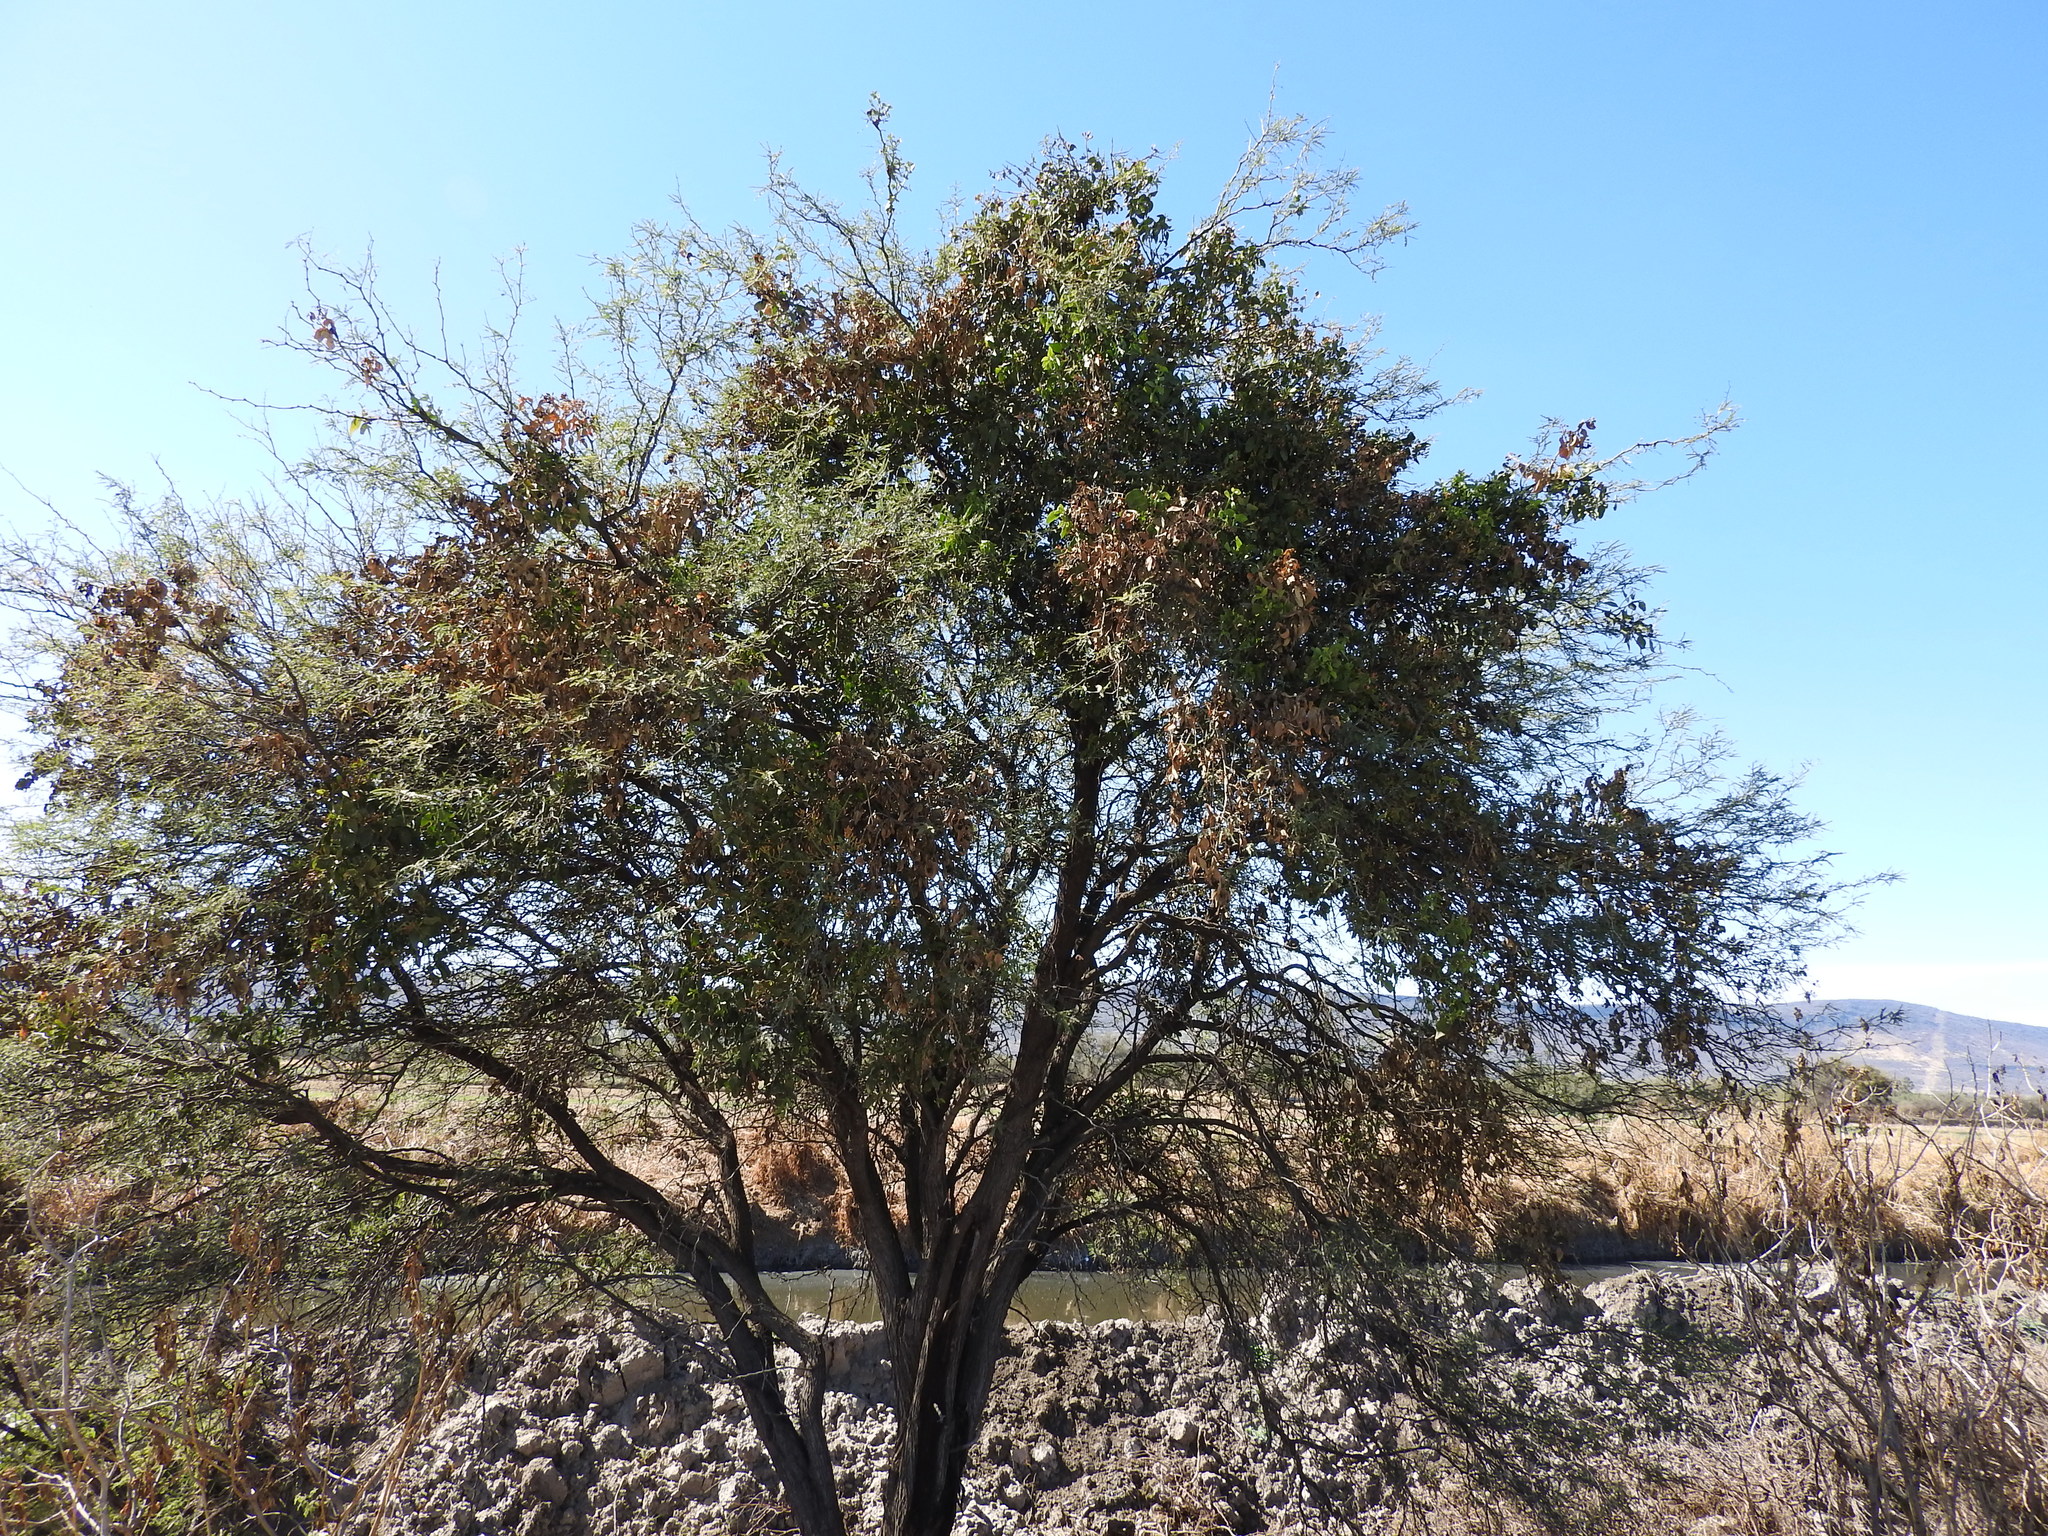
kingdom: Plantae
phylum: Tracheophyta
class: Magnoliopsida
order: Fabales
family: Fabaceae
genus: Prosopis
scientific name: Prosopis laevigata
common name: Smooth mesquite
